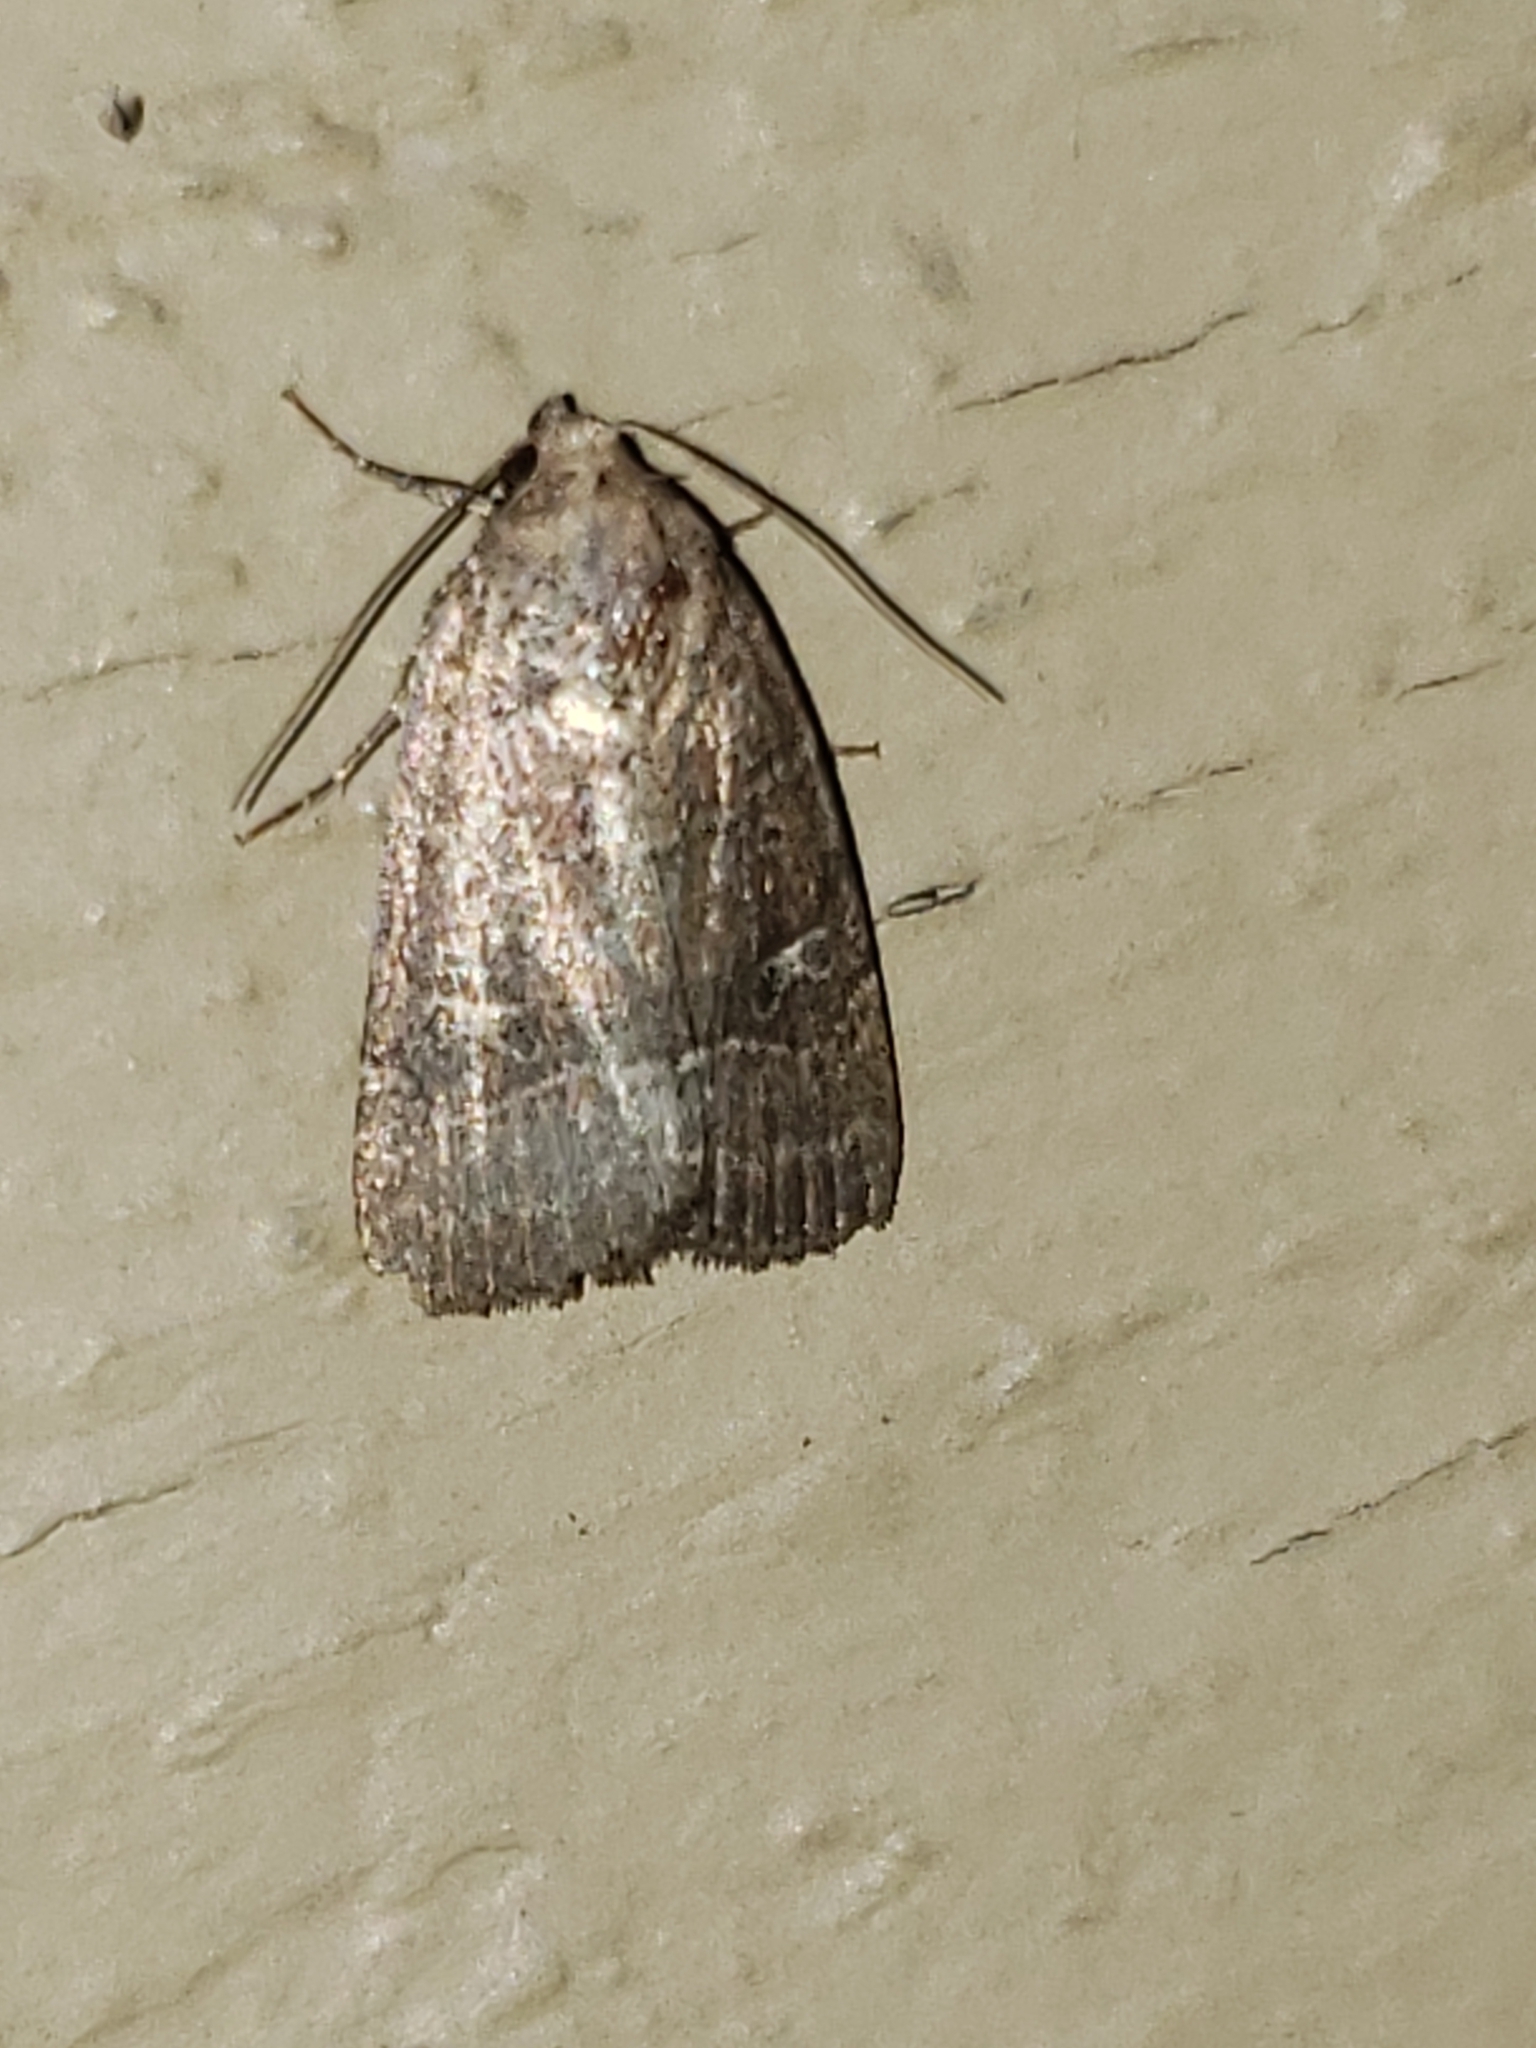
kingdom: Animalia
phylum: Arthropoda
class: Insecta
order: Lepidoptera
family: Noctuidae
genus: Elaphria
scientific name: Elaphria grata
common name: Grateful midget moth
